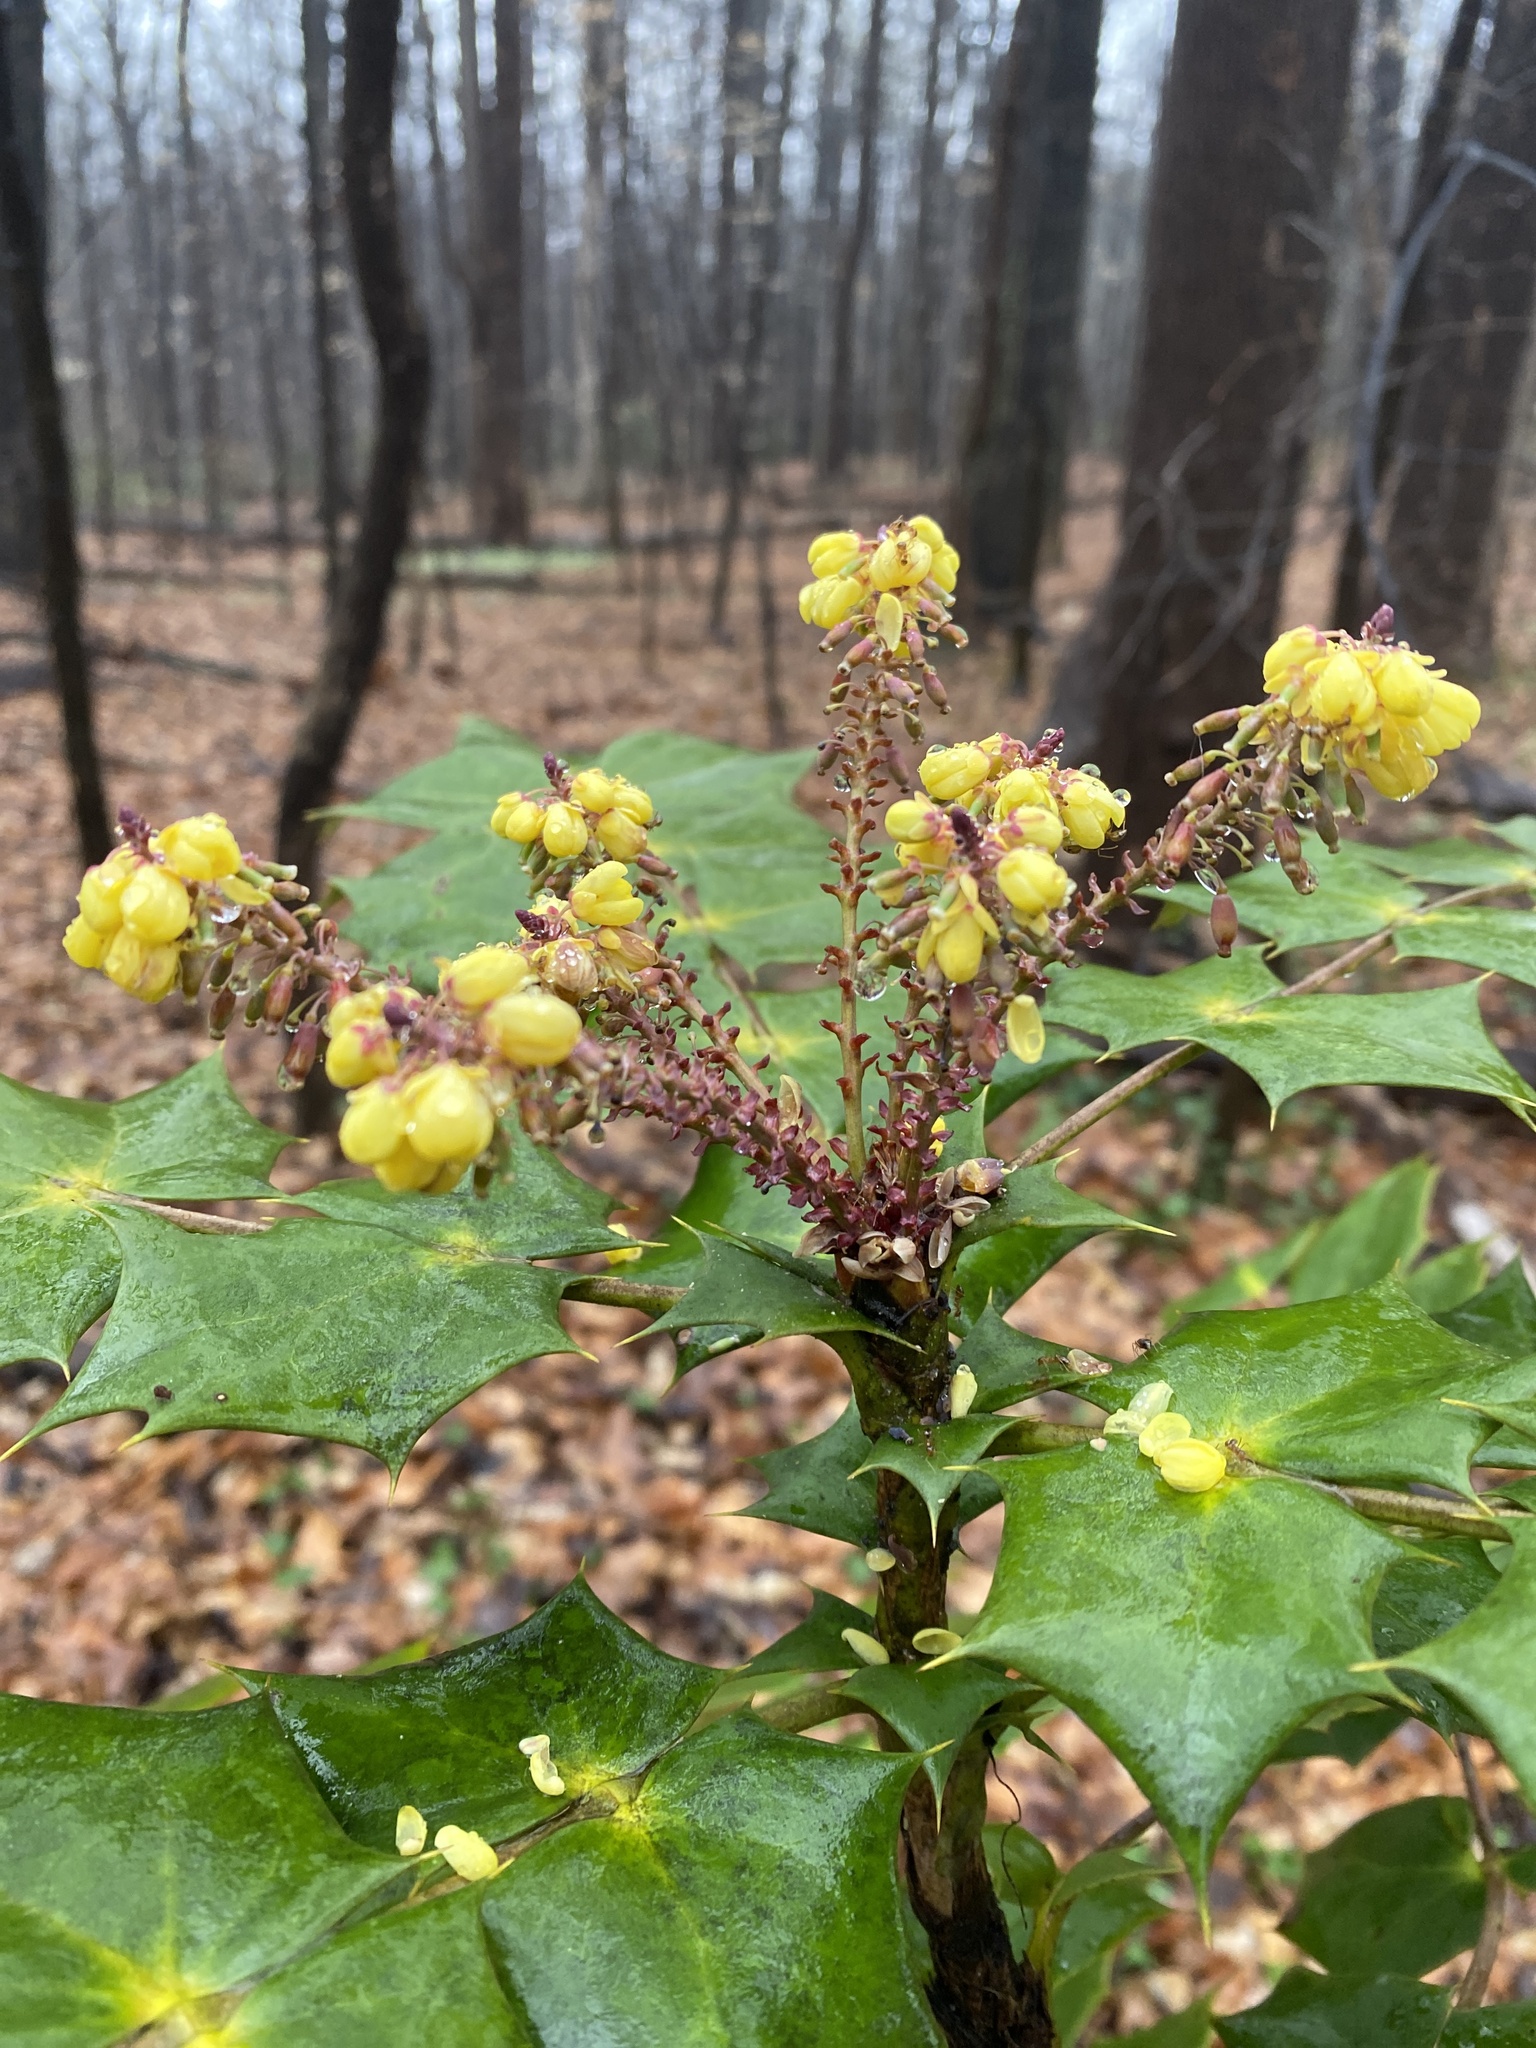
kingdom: Plantae
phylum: Tracheophyta
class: Magnoliopsida
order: Ranunculales
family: Berberidaceae
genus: Mahonia
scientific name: Mahonia bealei
